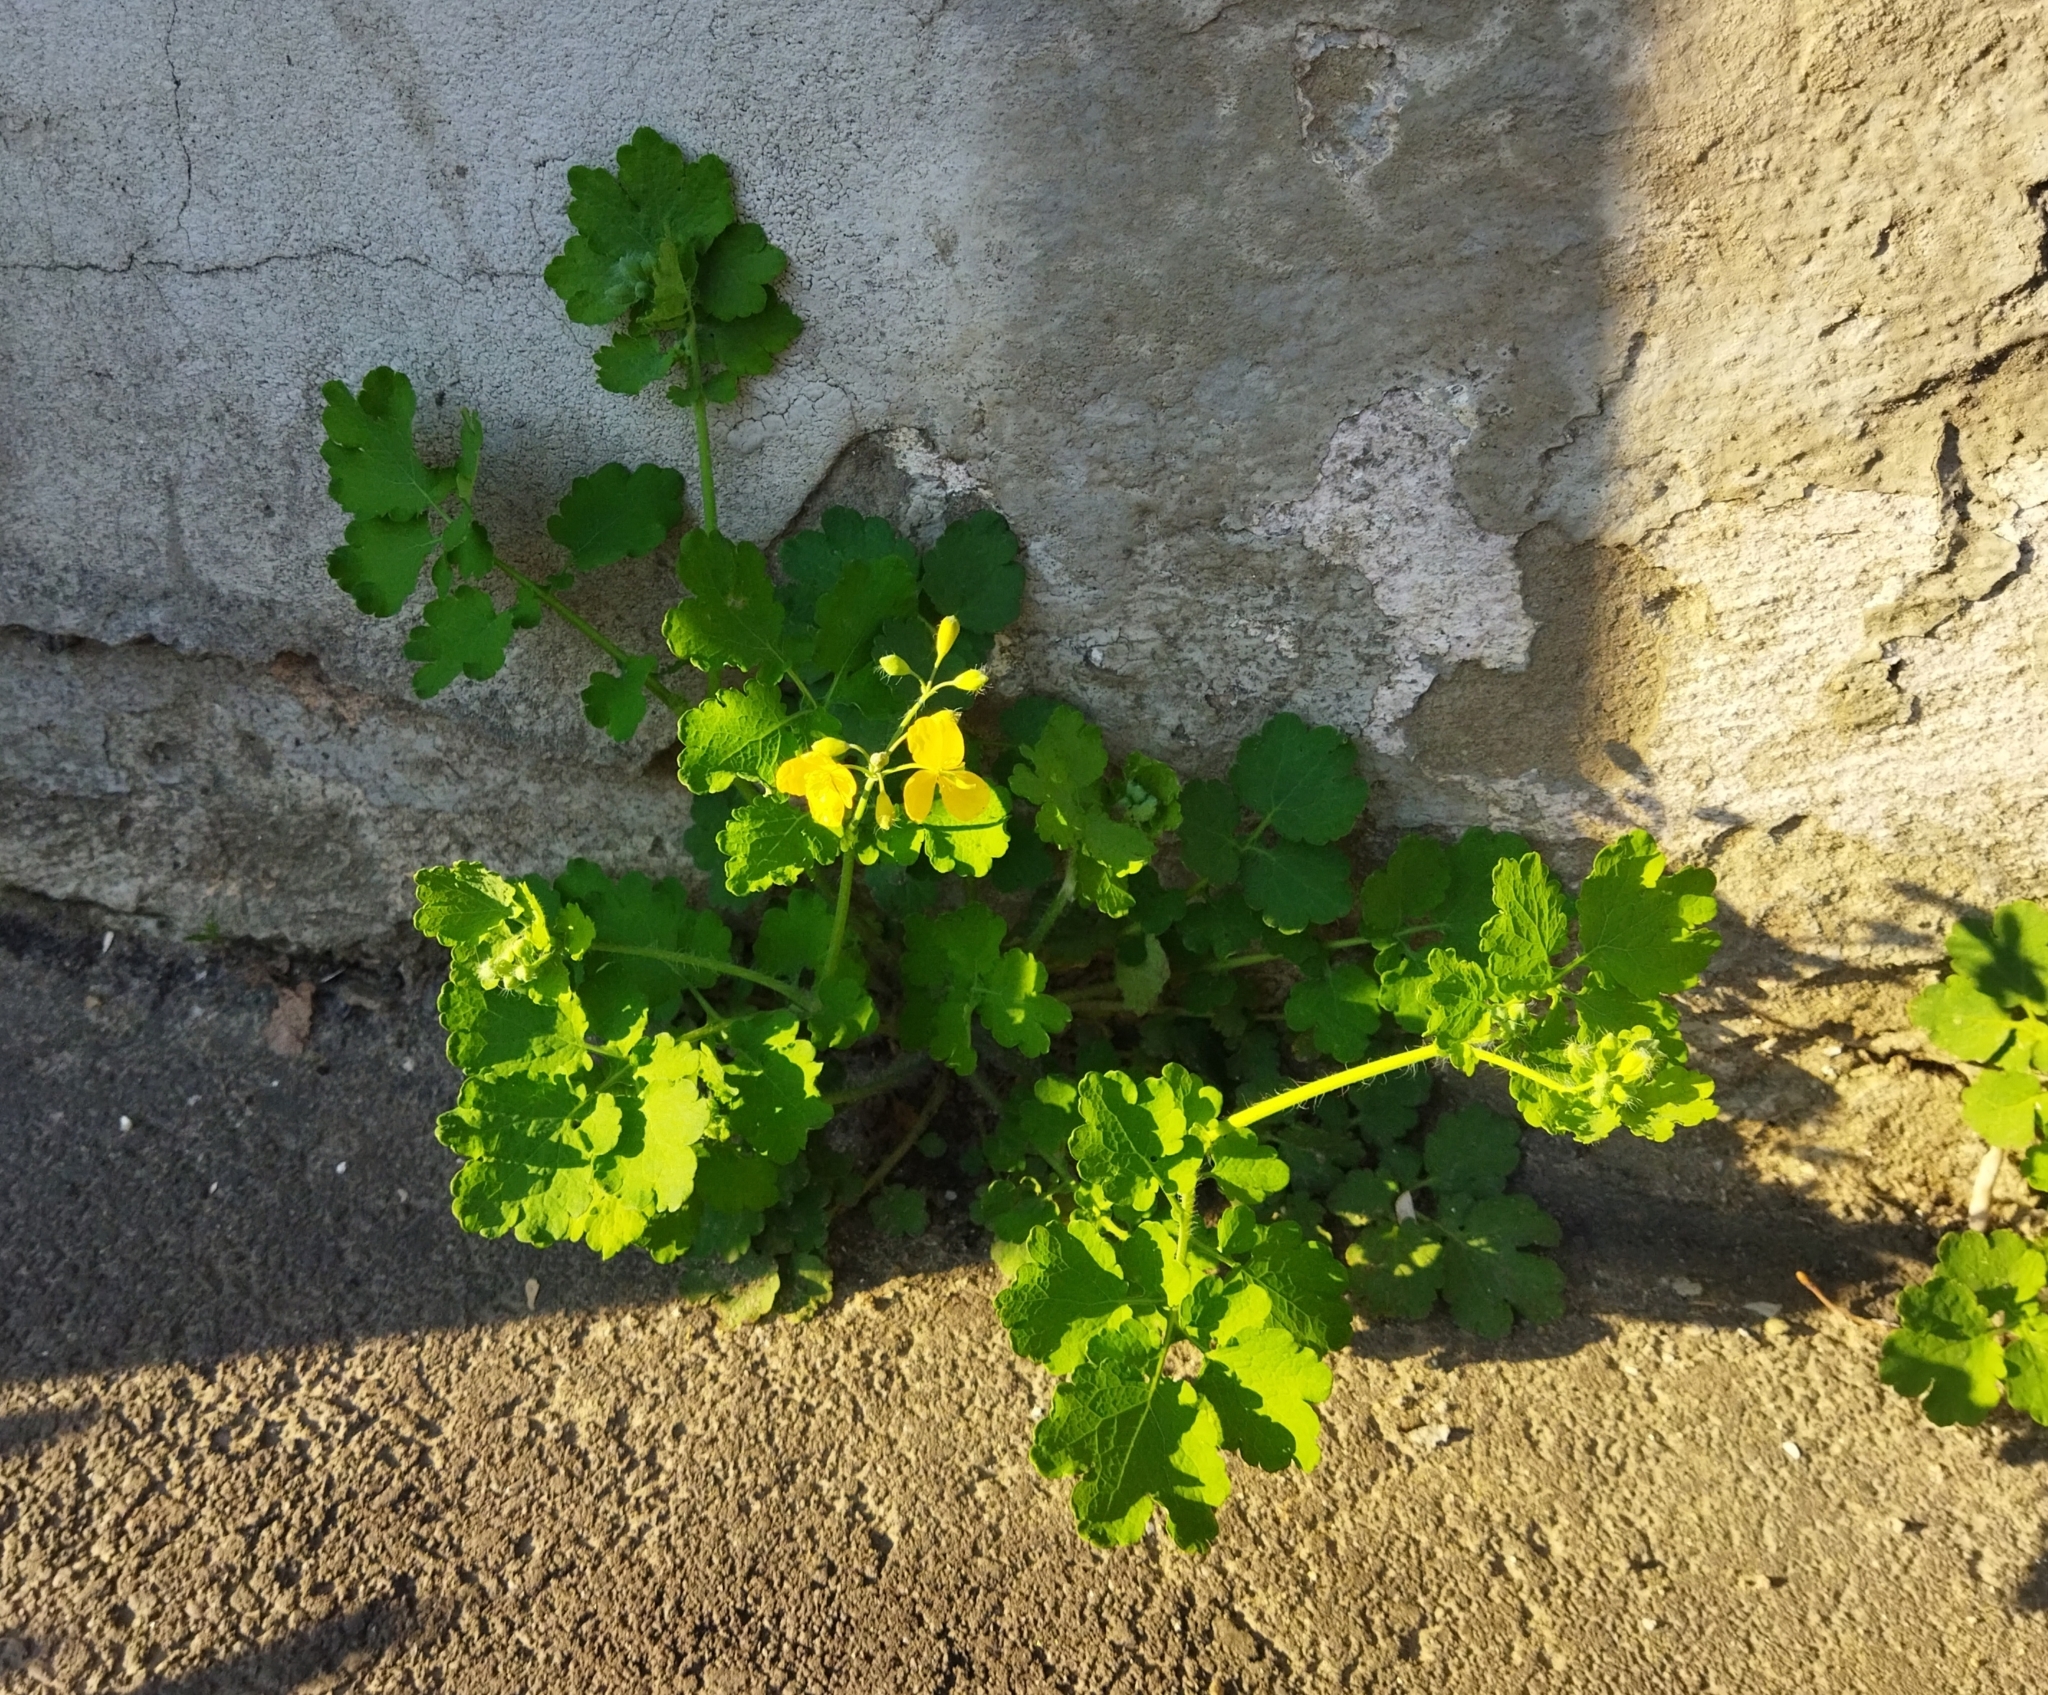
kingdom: Plantae
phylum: Tracheophyta
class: Magnoliopsida
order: Ranunculales
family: Papaveraceae
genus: Chelidonium
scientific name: Chelidonium majus
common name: Greater celandine
